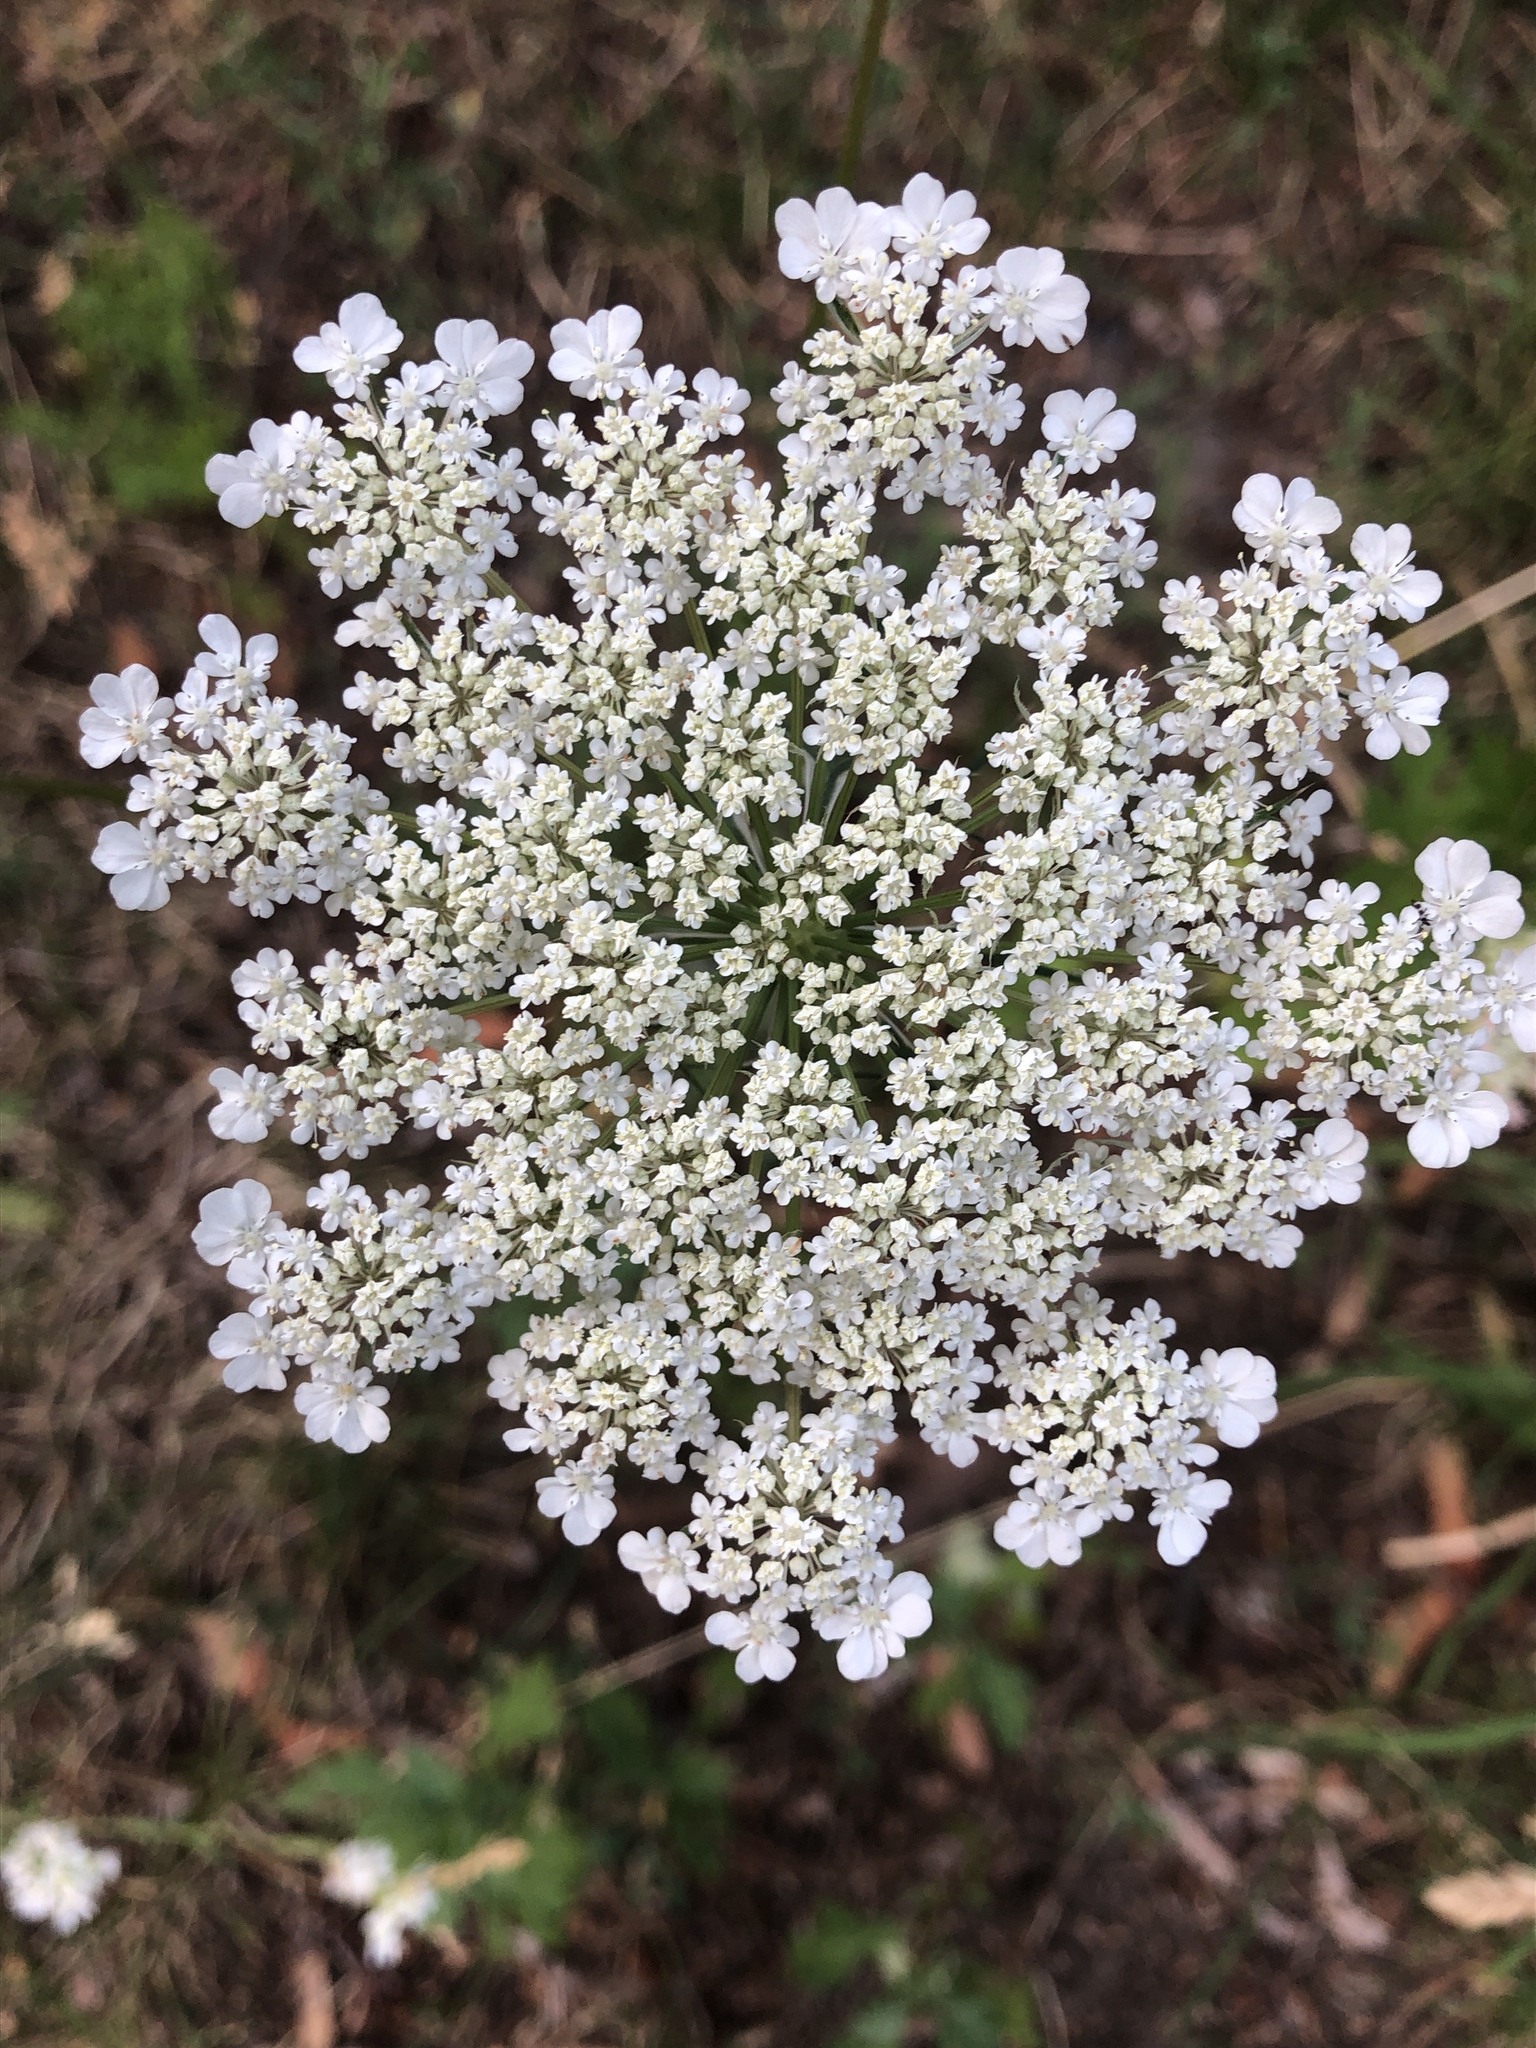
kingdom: Plantae
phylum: Tracheophyta
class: Magnoliopsida
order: Apiales
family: Apiaceae
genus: Daucus
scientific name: Daucus carota
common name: Wild carrot
